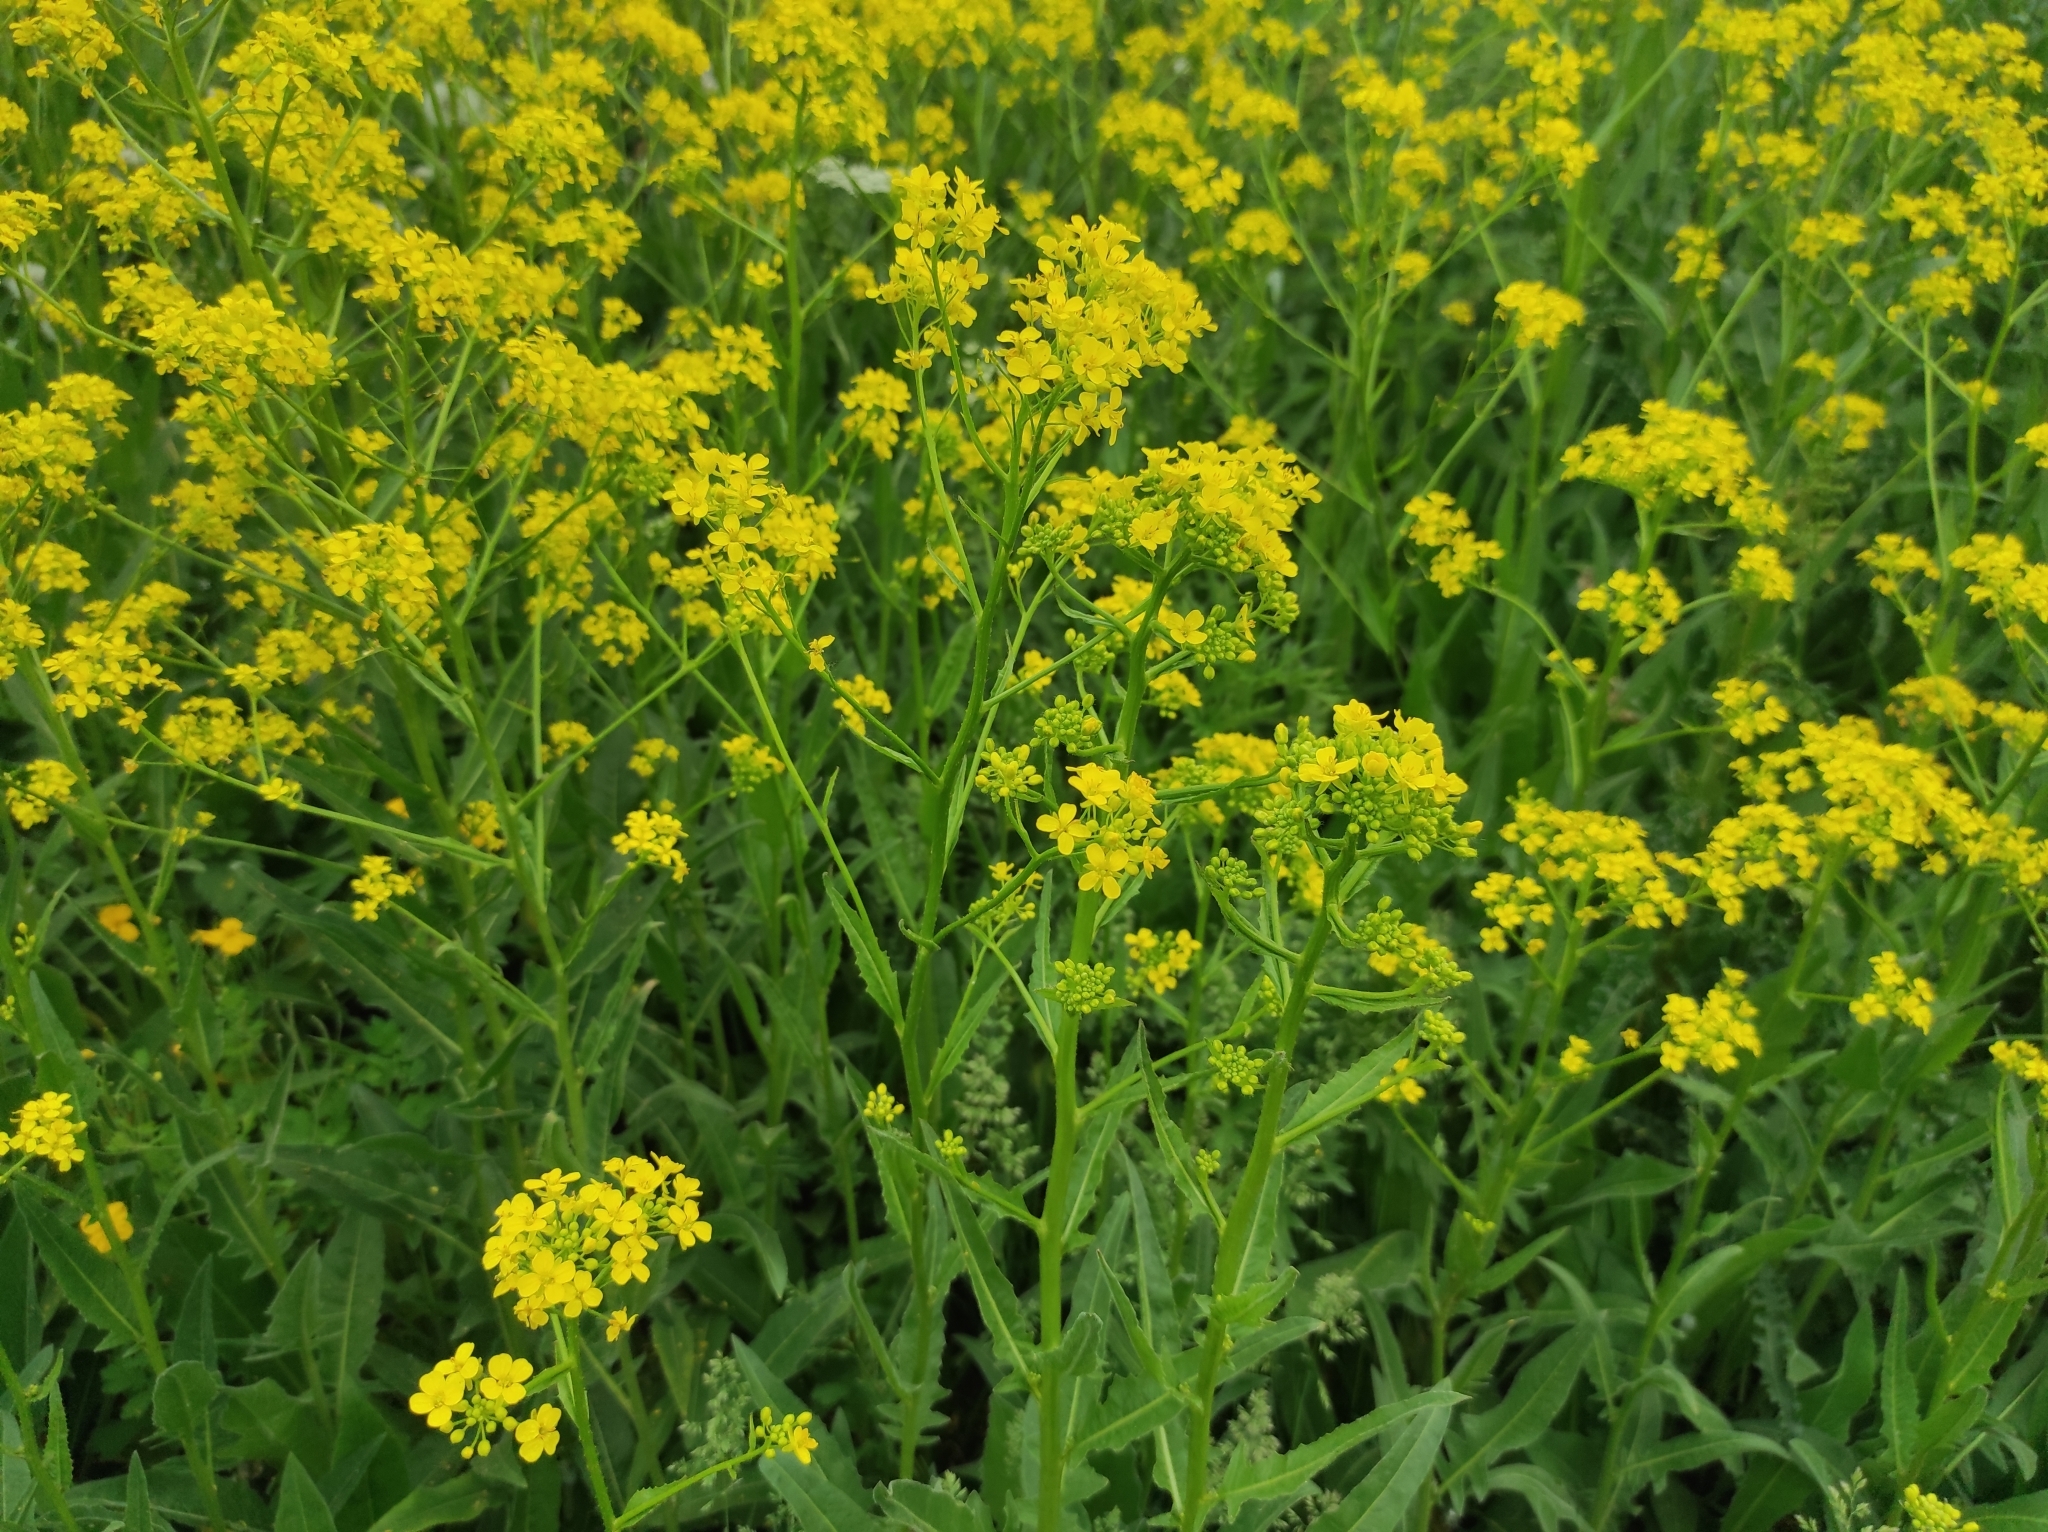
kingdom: Plantae
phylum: Tracheophyta
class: Magnoliopsida
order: Brassicales
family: Brassicaceae
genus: Bunias
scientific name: Bunias orientalis
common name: Warty-cabbage
